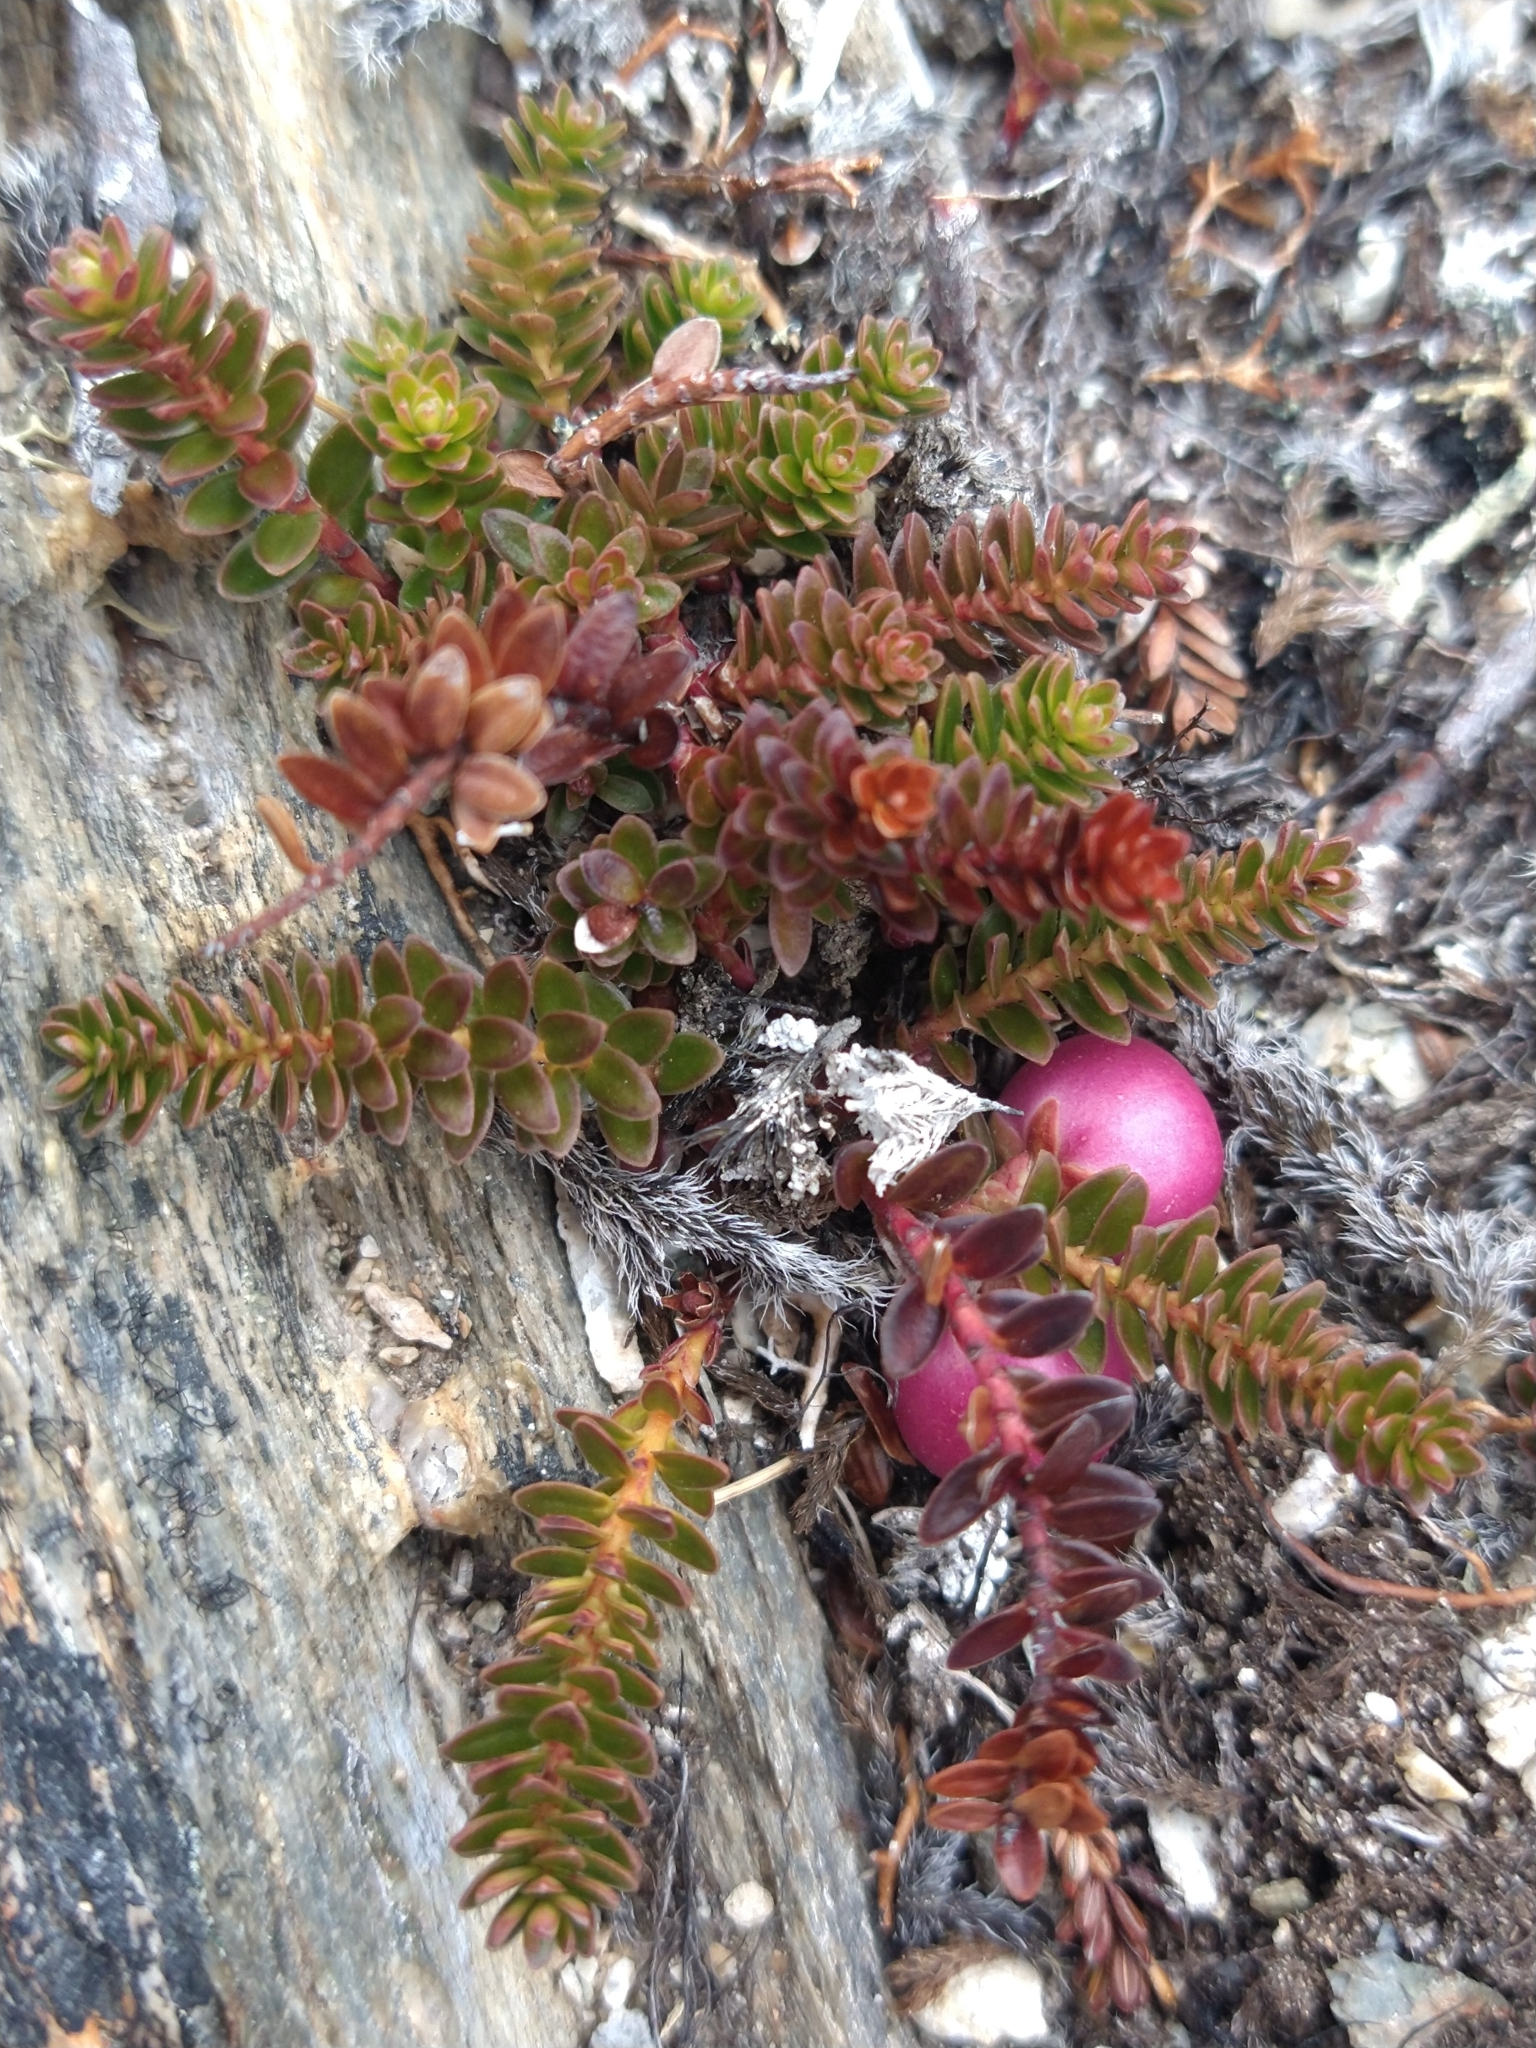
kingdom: Plantae
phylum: Tracheophyta
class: Magnoliopsida
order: Ericales
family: Ericaceae
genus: Gaultheria
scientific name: Gaultheria pumila
